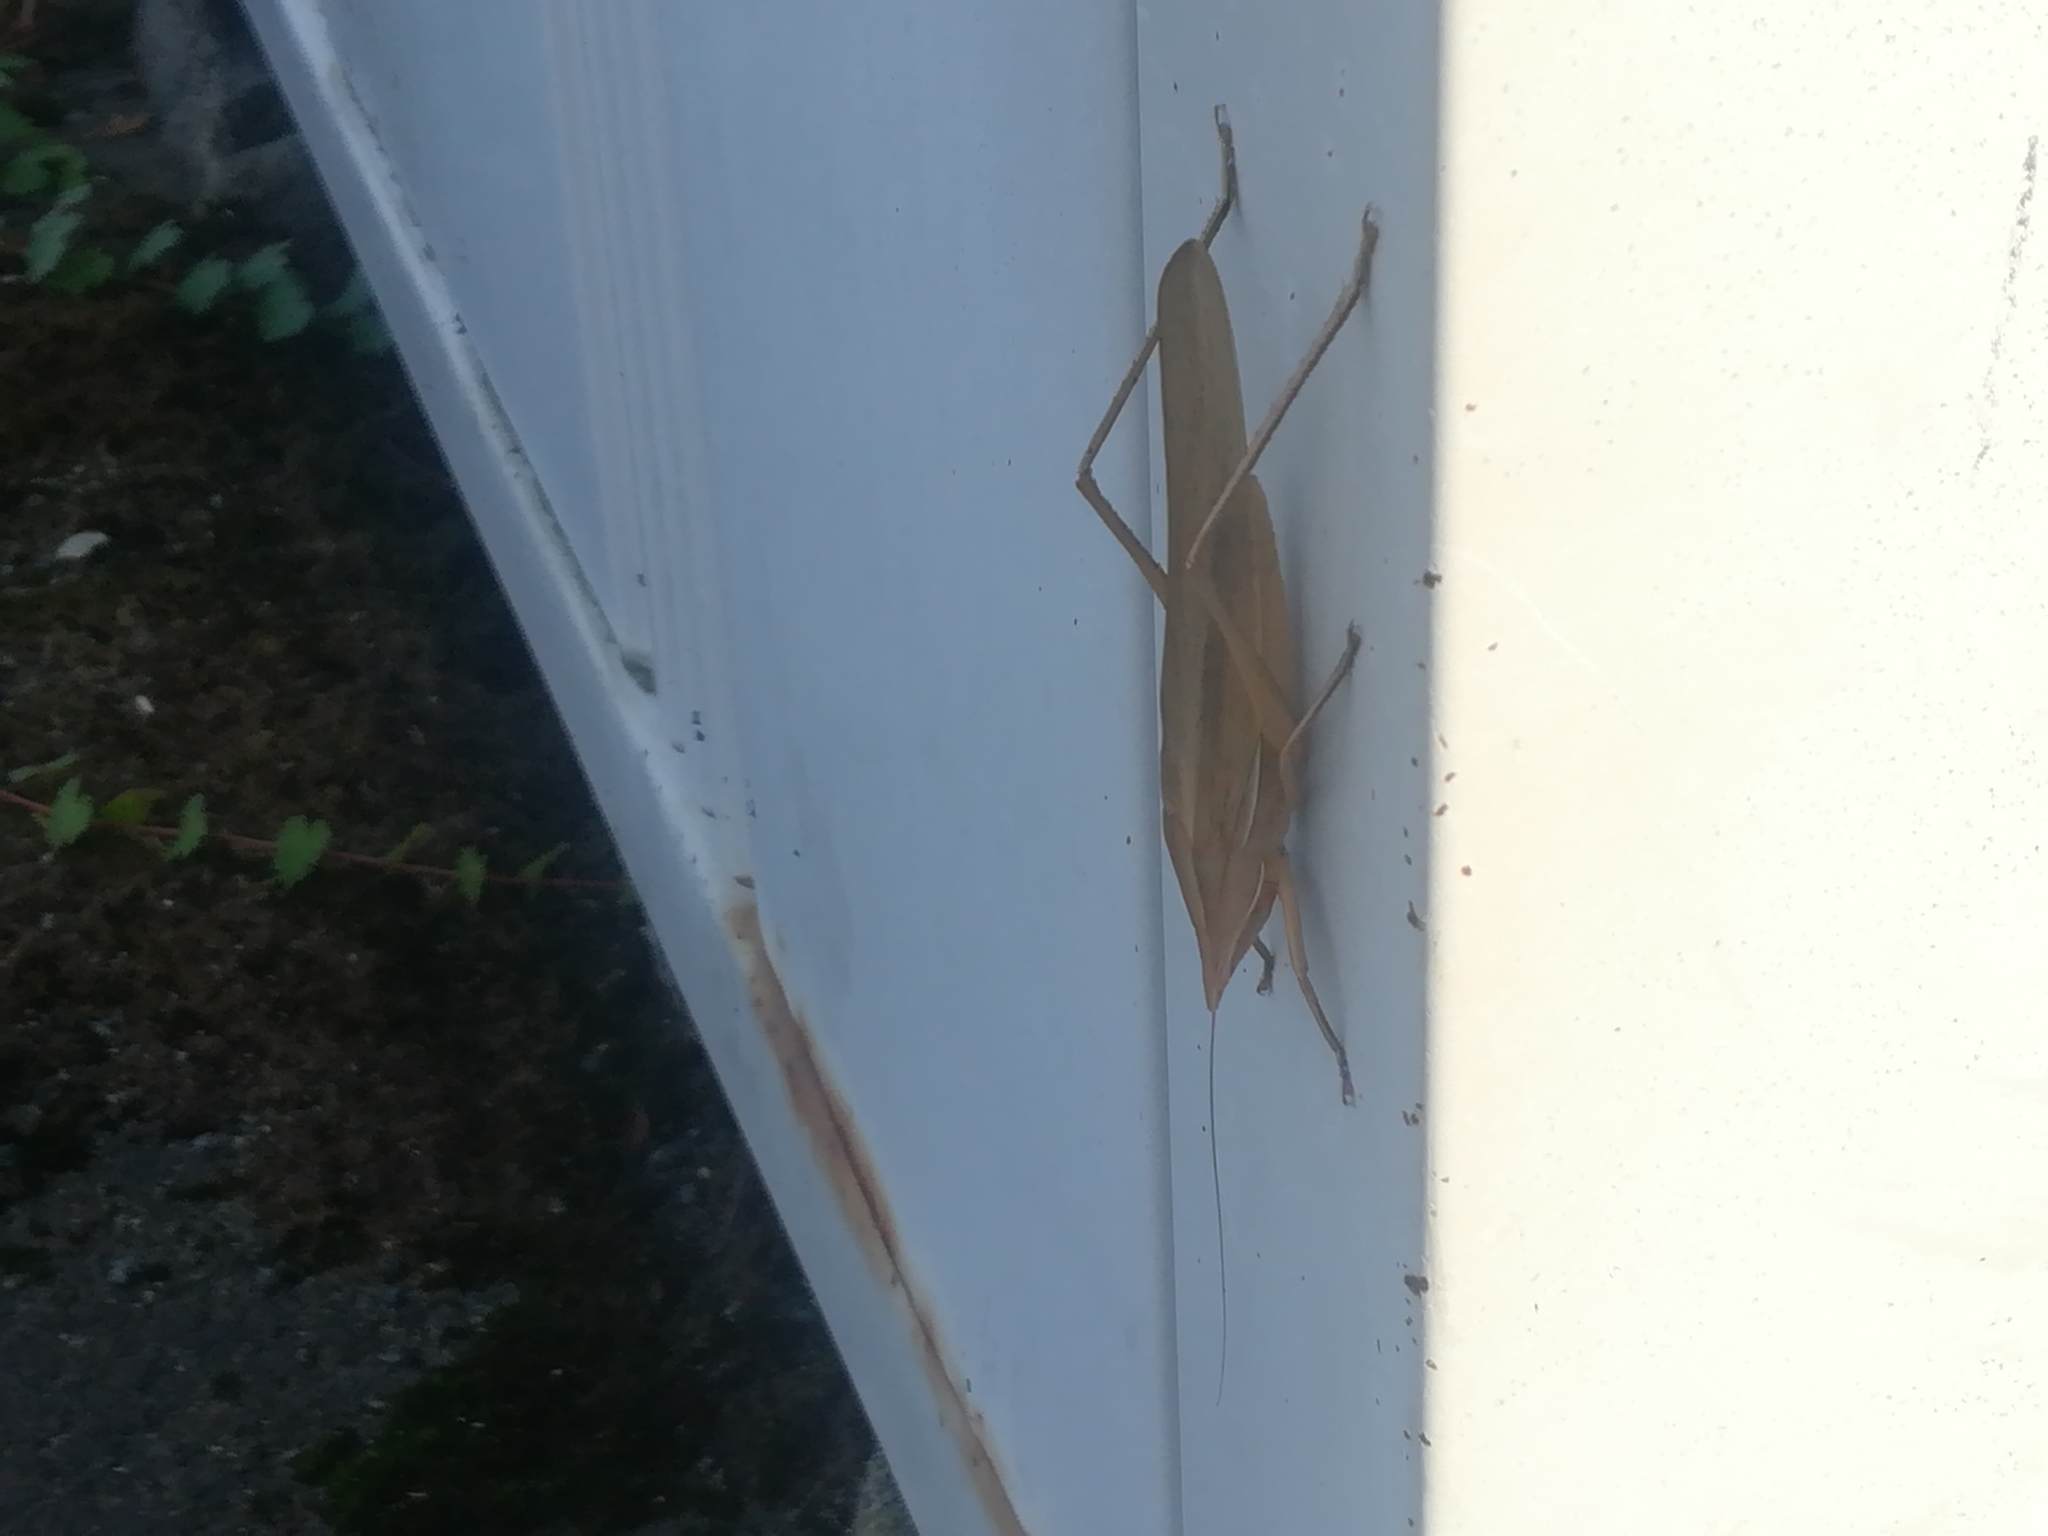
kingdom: Animalia
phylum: Arthropoda
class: Insecta
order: Orthoptera
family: Tettigoniidae
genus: Euconocephalus
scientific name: Euconocephalus varius
